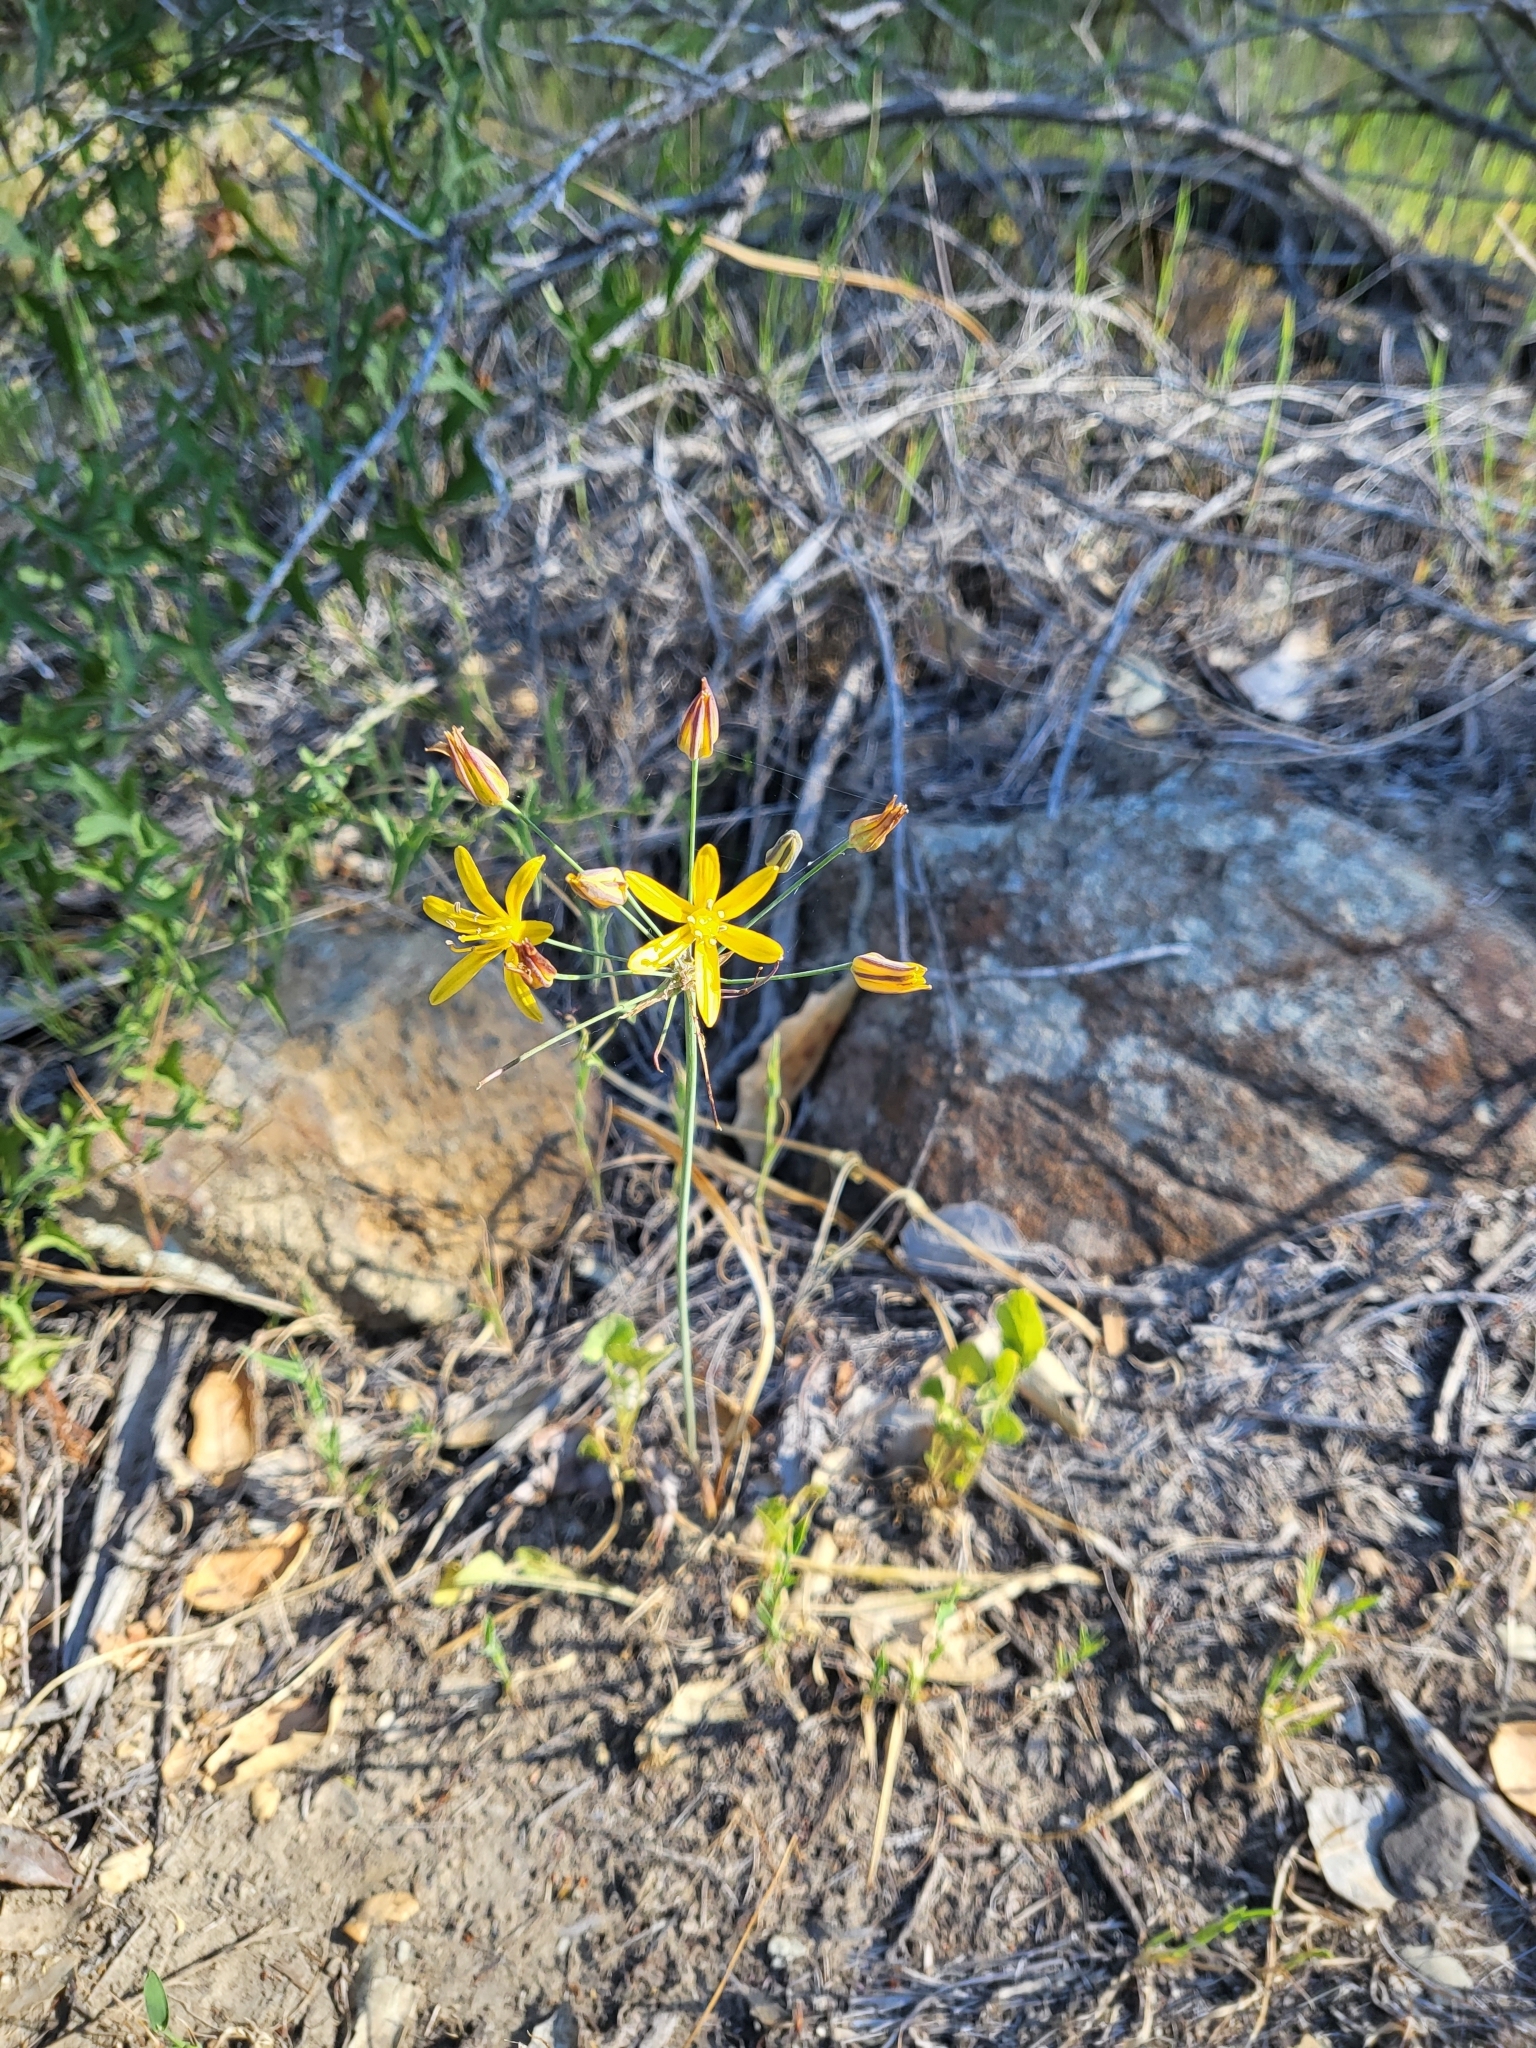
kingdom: Plantae
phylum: Tracheophyta
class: Liliopsida
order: Asparagales
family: Asparagaceae
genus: Bloomeria
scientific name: Bloomeria crocea
